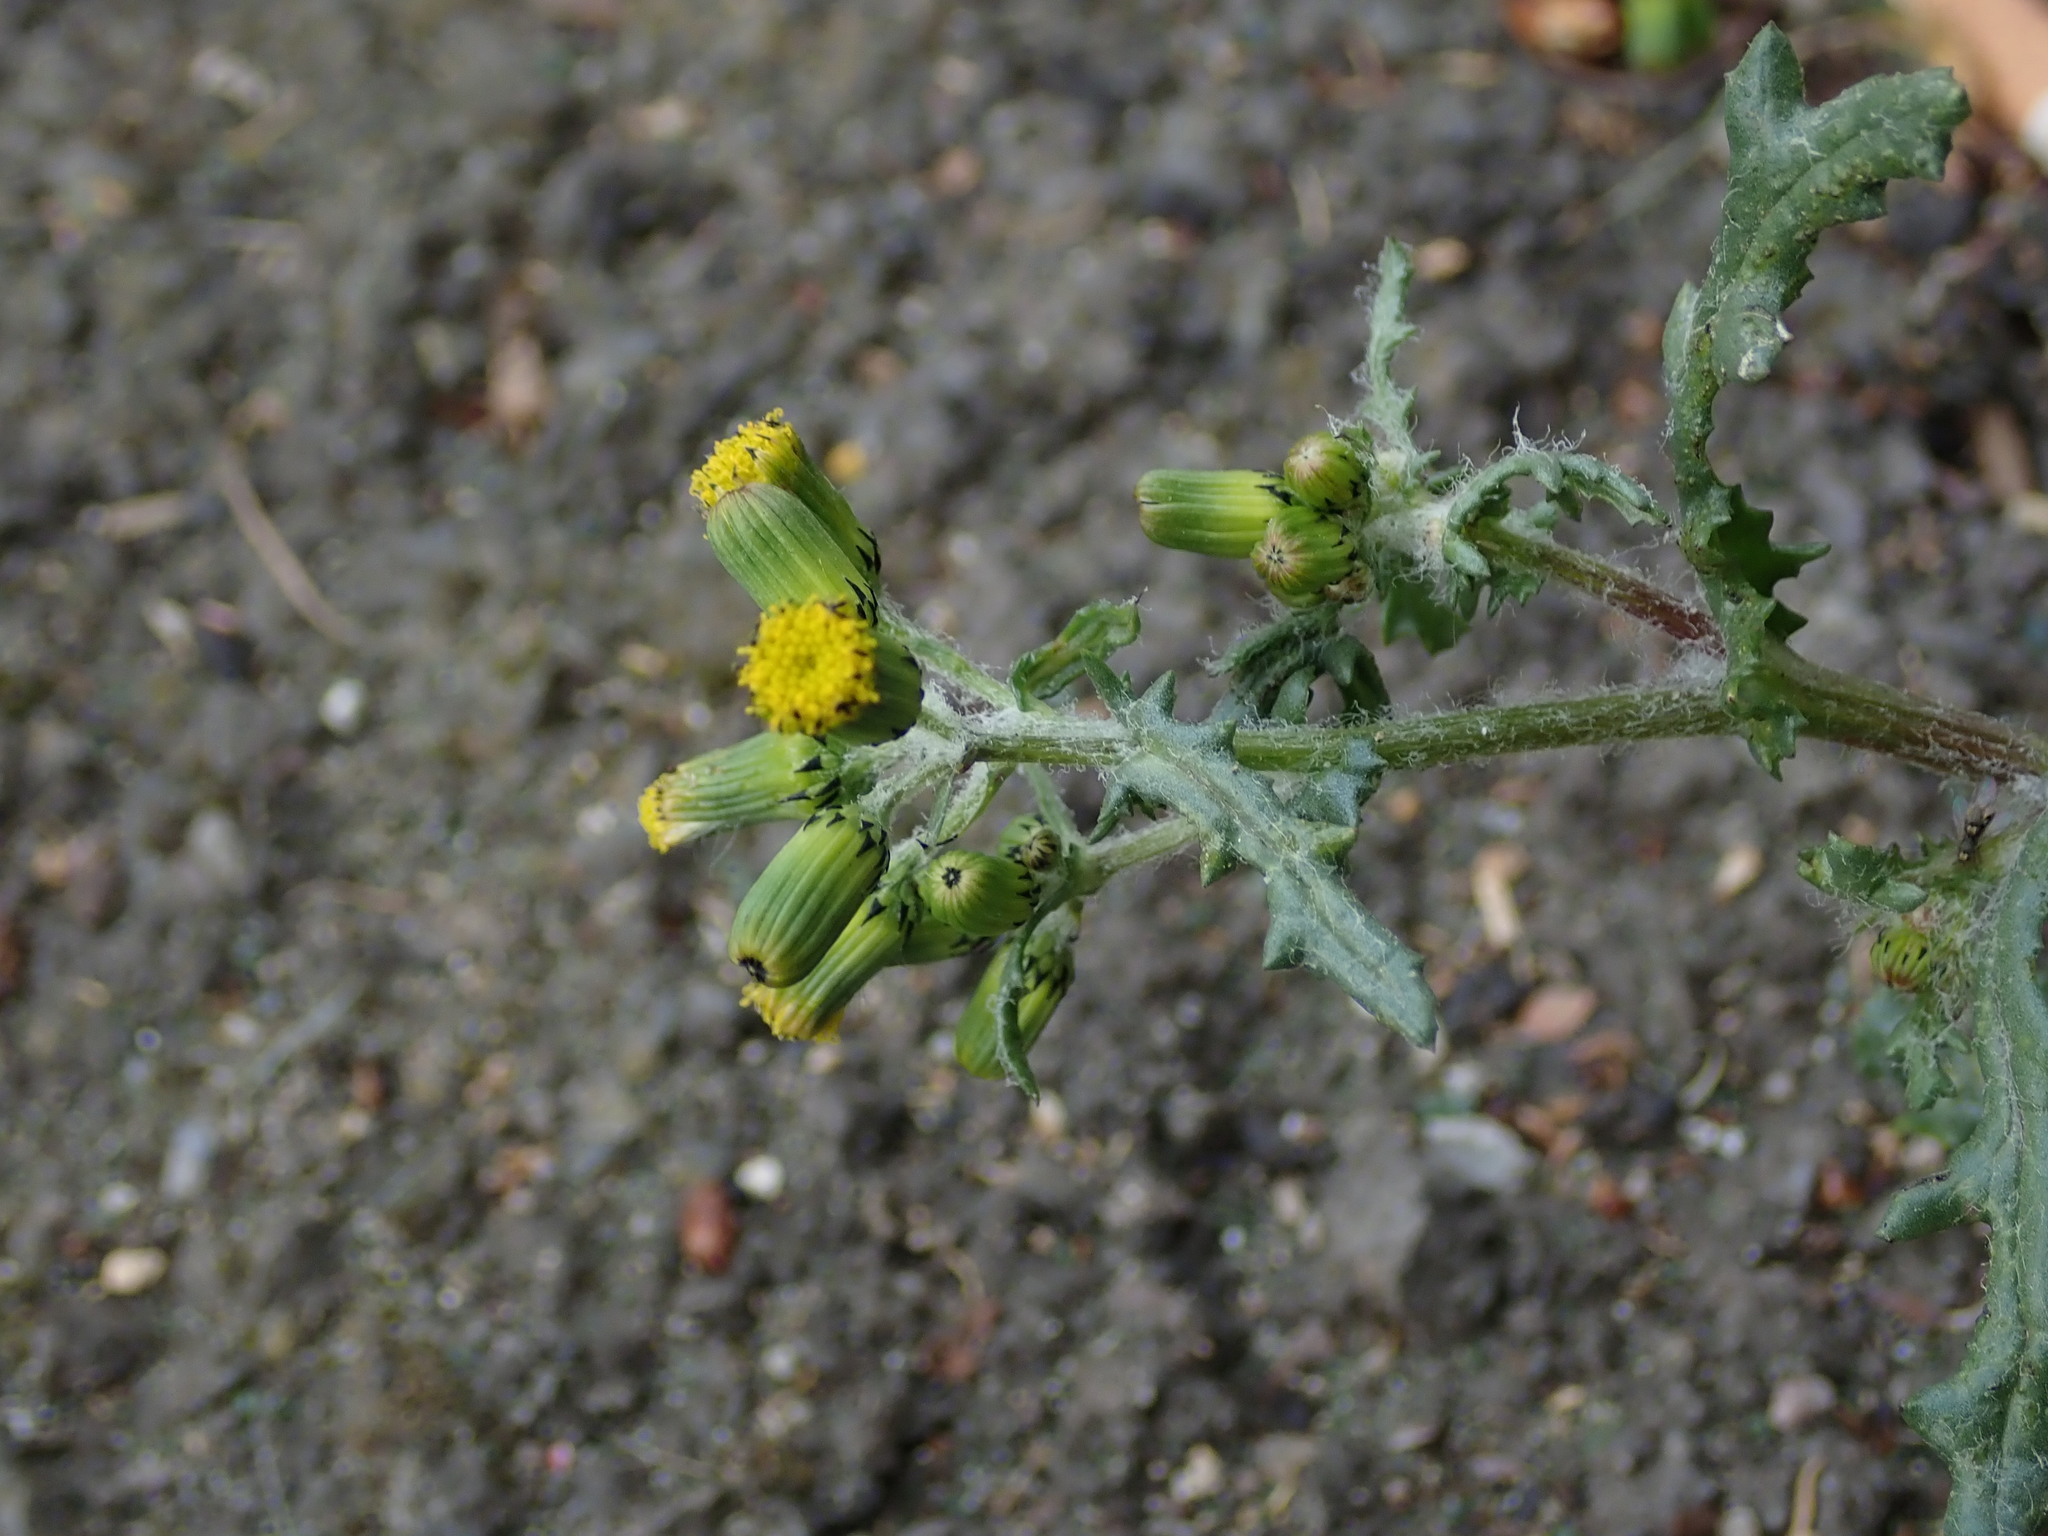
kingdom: Plantae
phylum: Tracheophyta
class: Magnoliopsida
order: Asterales
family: Asteraceae
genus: Senecio
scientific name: Senecio vulgaris
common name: Old-man-in-the-spring
